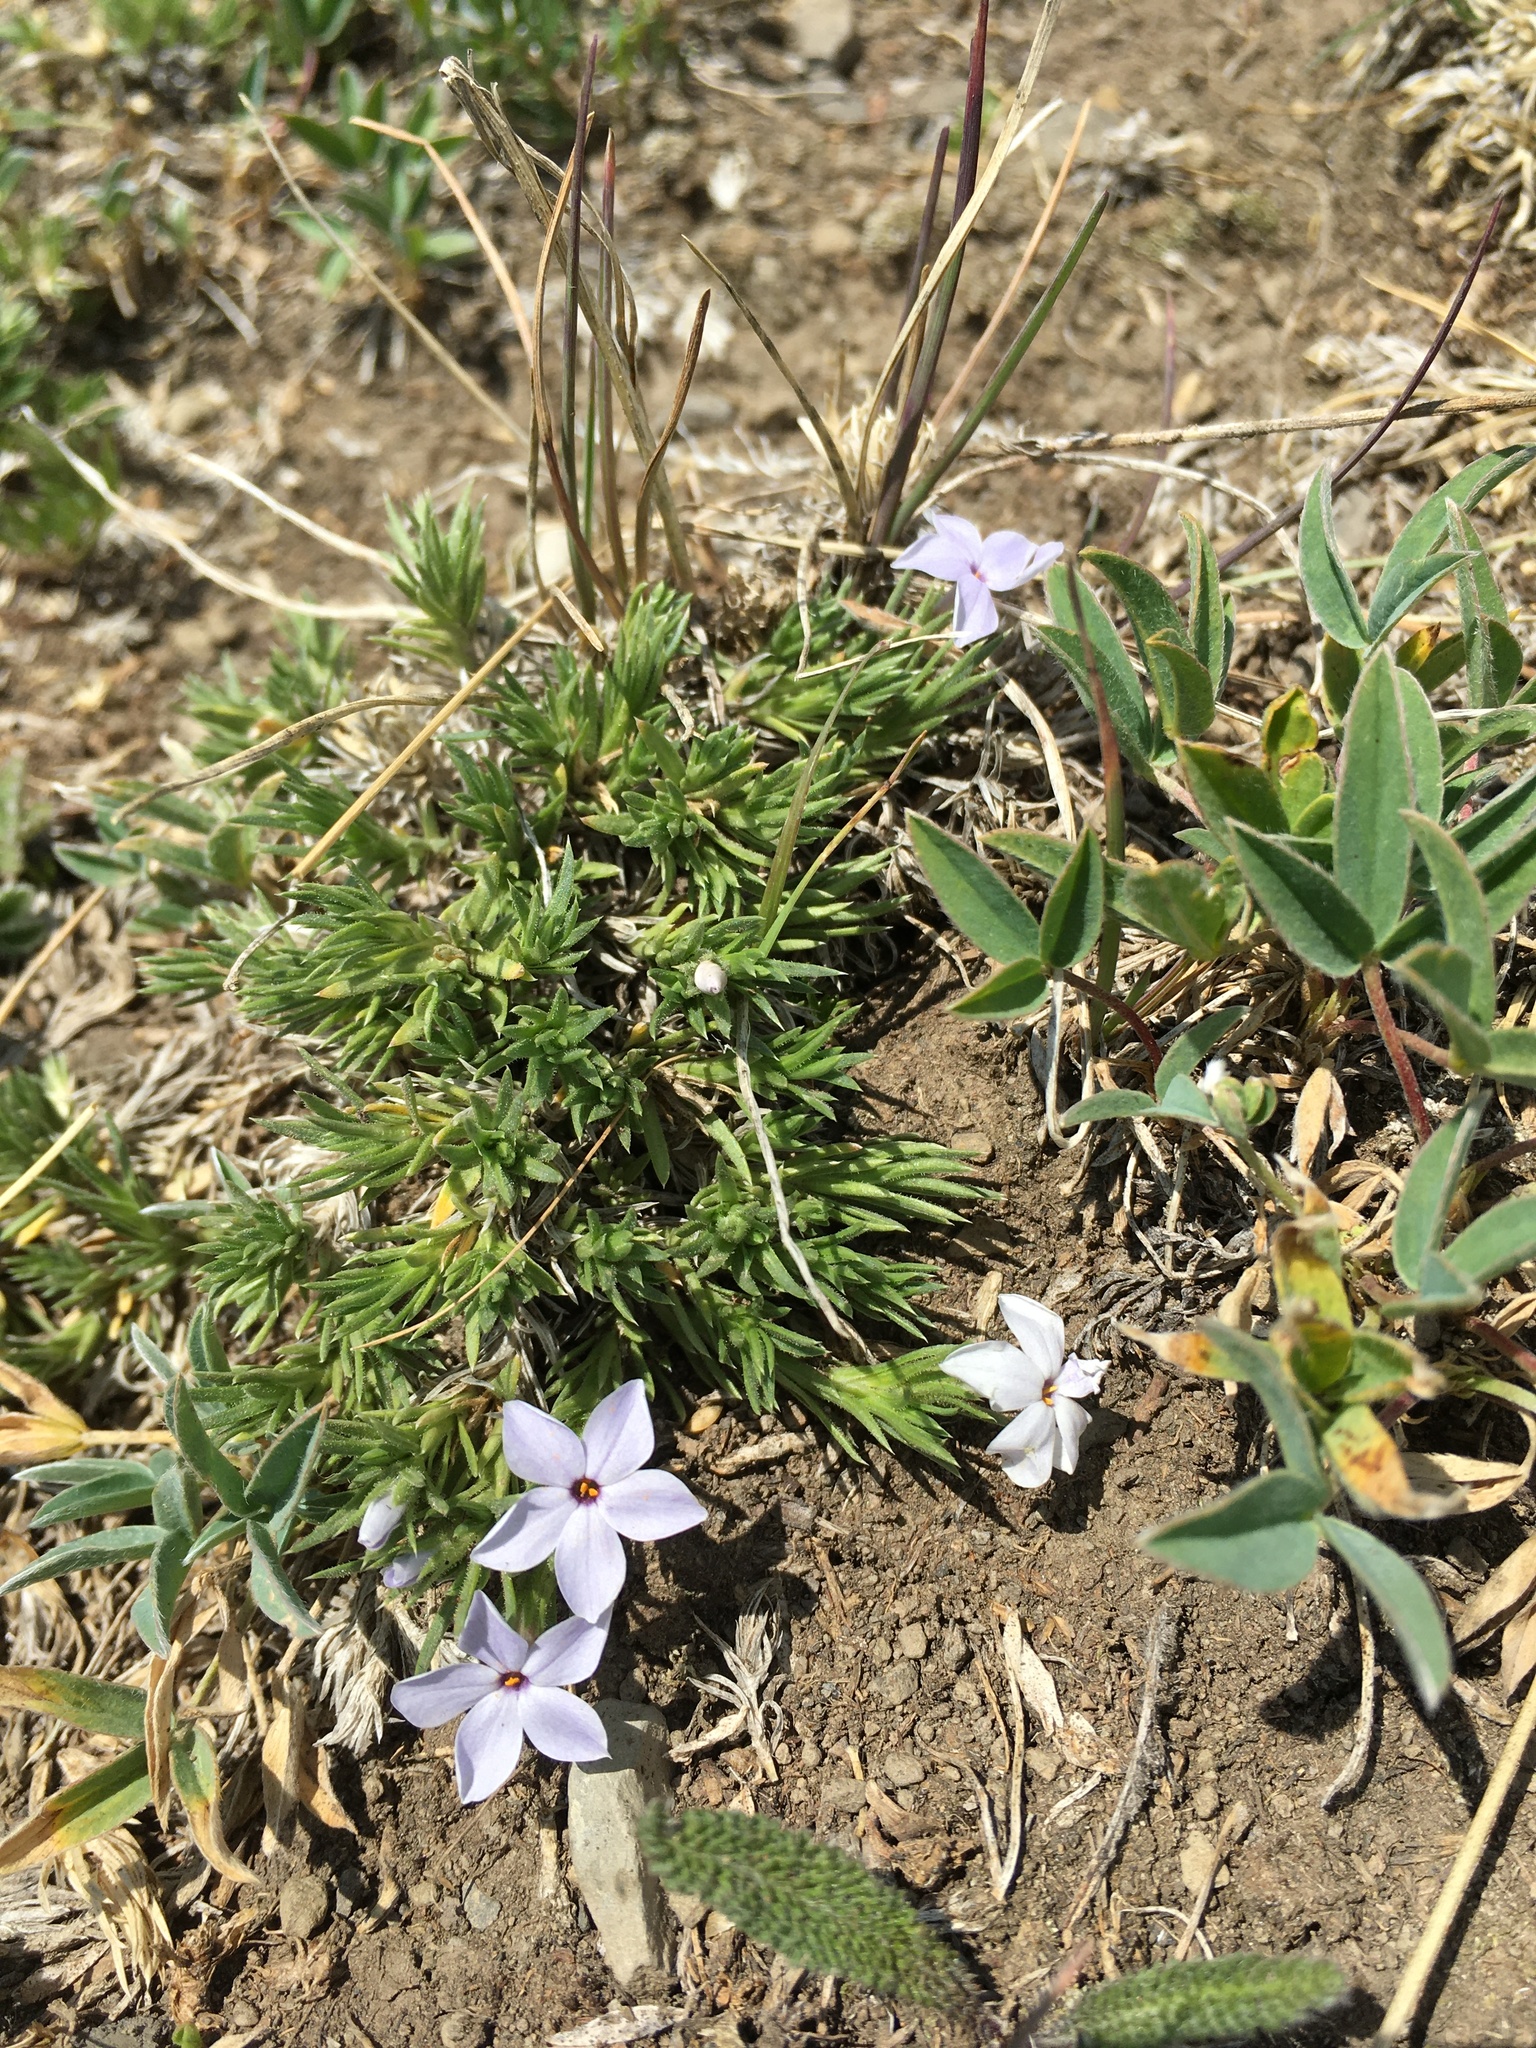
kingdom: Plantae
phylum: Tracheophyta
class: Magnoliopsida
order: Ericales
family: Polemoniaceae
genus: Phlox
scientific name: Phlox condensata
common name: Compact phlox
